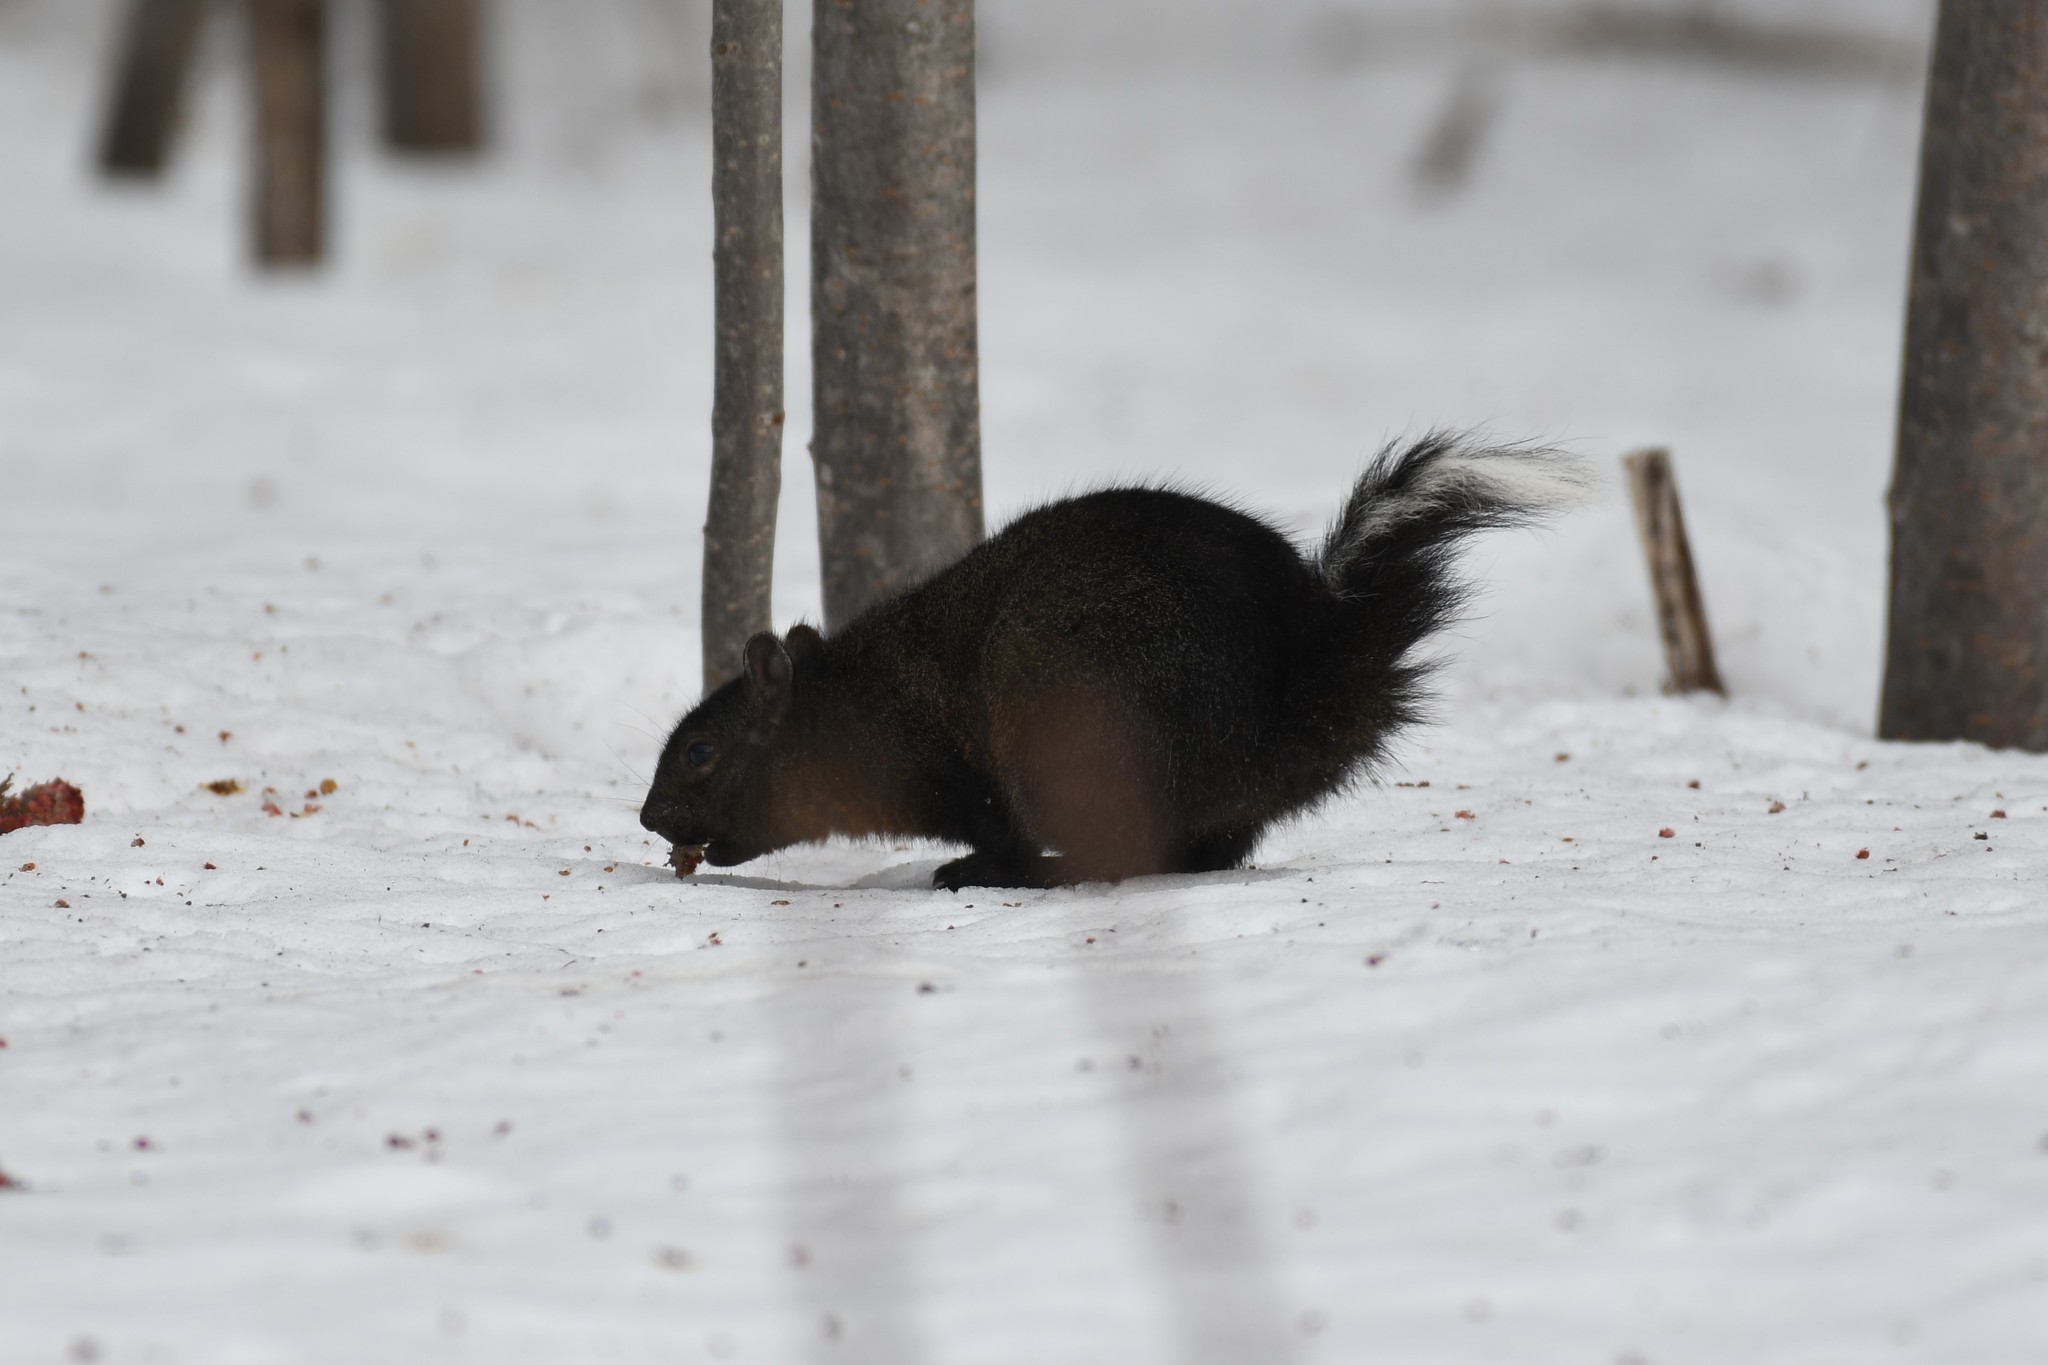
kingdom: Animalia
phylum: Chordata
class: Mammalia
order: Rodentia
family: Sciuridae
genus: Sciurus
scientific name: Sciurus carolinensis
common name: Eastern gray squirrel
